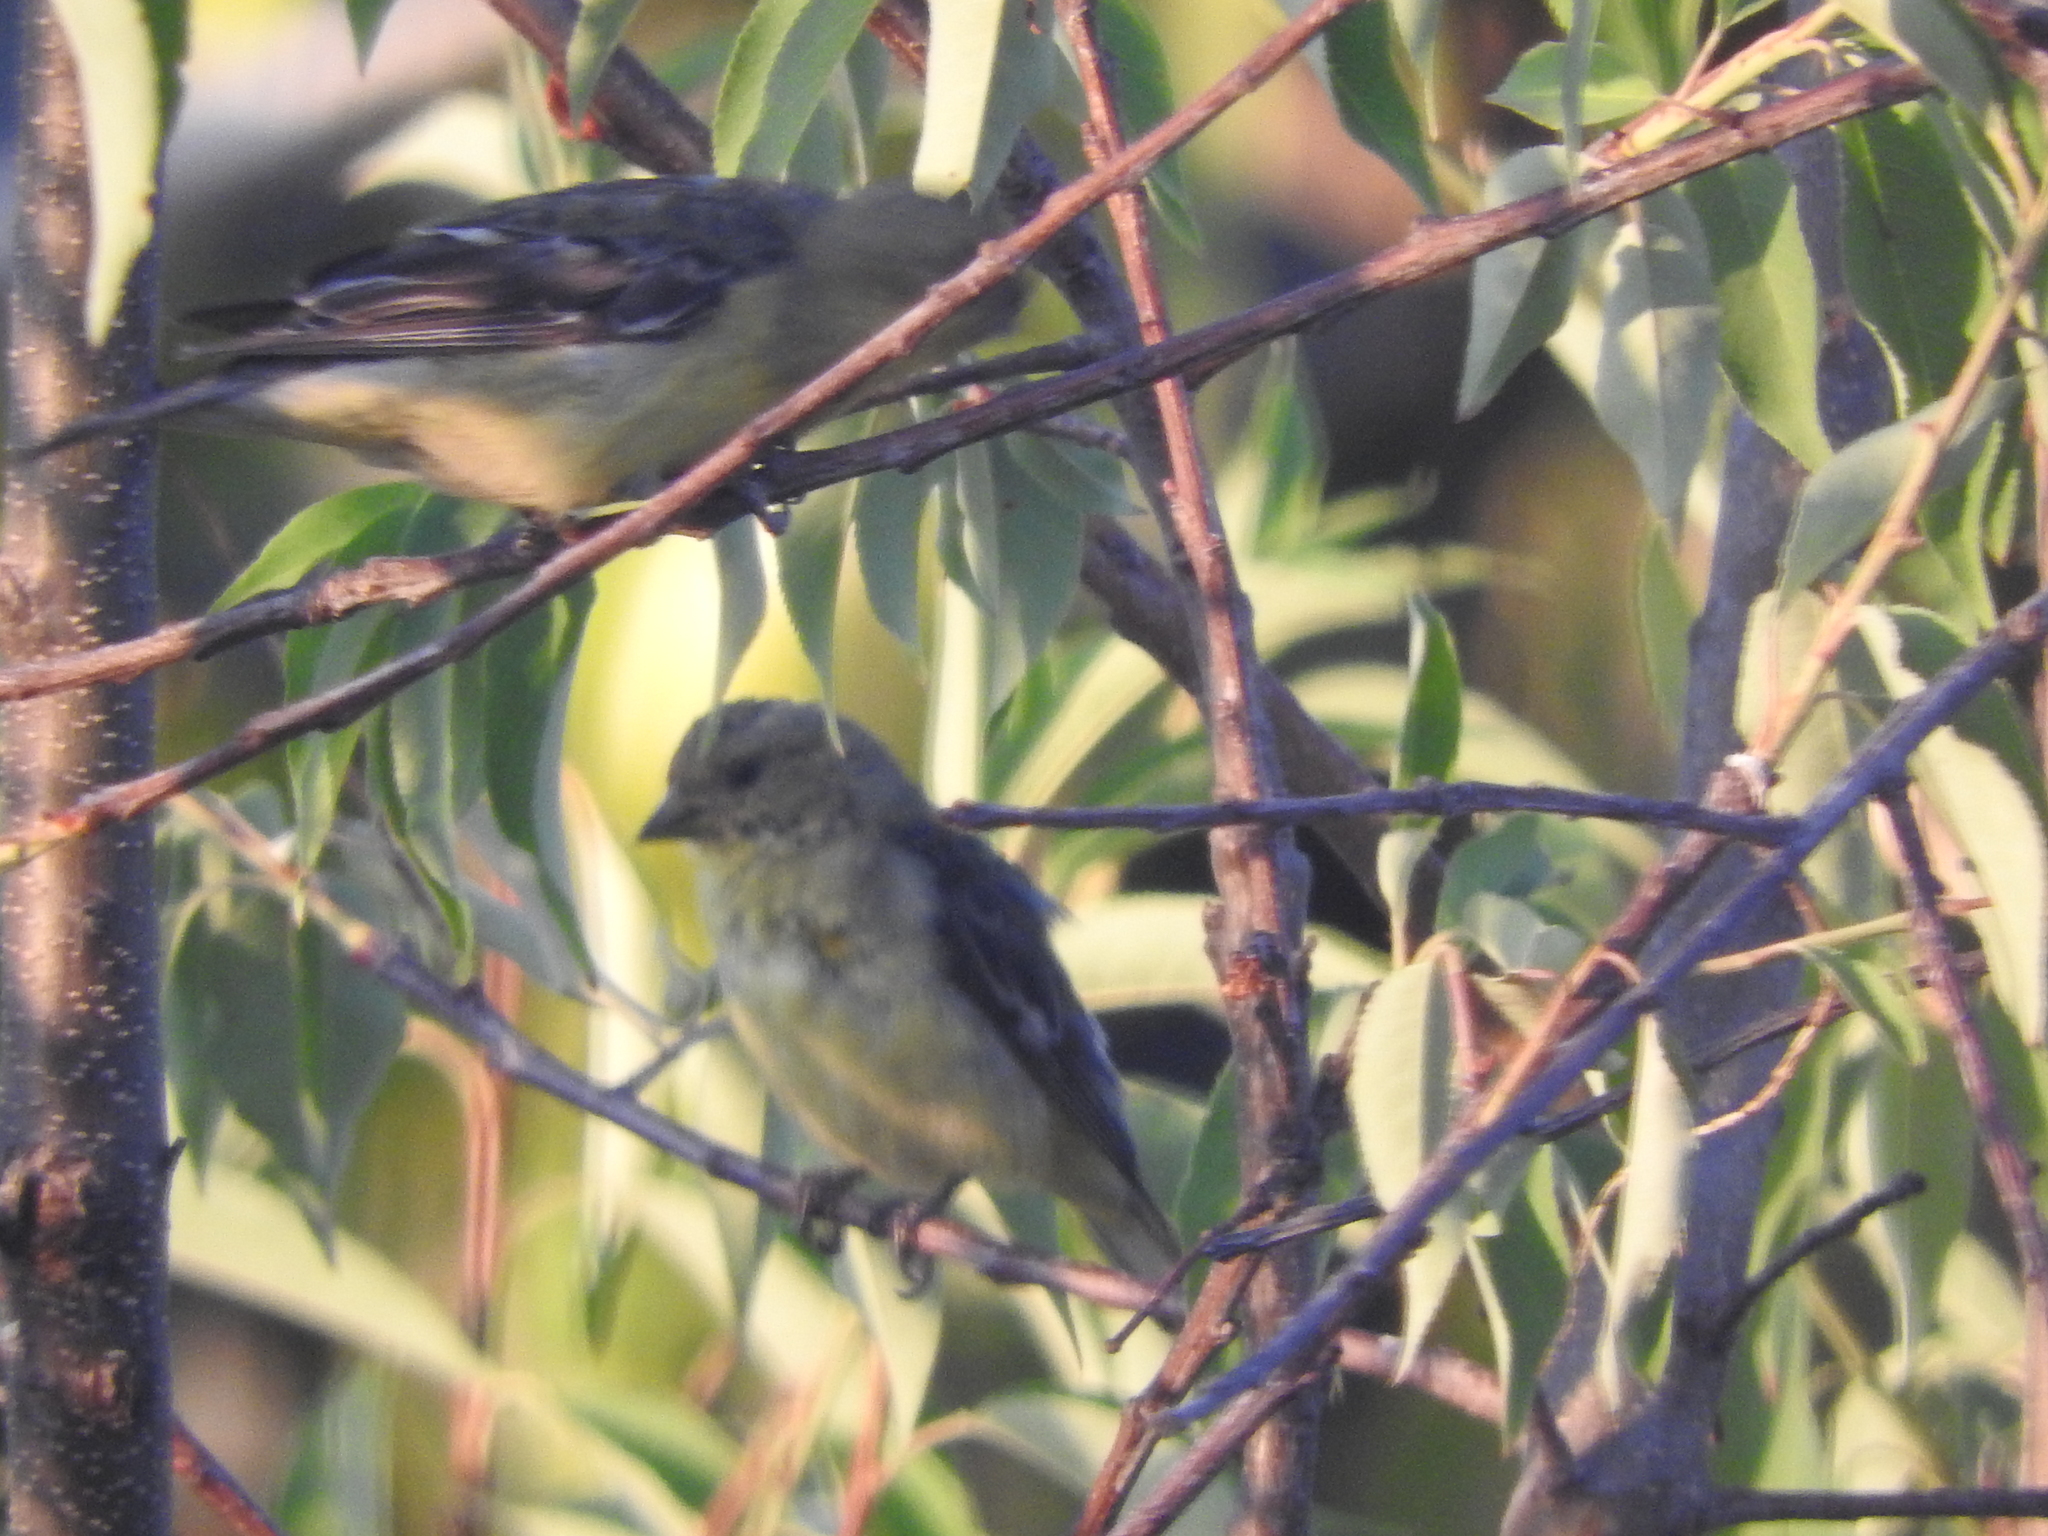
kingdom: Animalia
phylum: Chordata
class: Aves
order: Passeriformes
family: Fringillidae
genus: Spinus
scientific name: Spinus psaltria
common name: Lesser goldfinch
